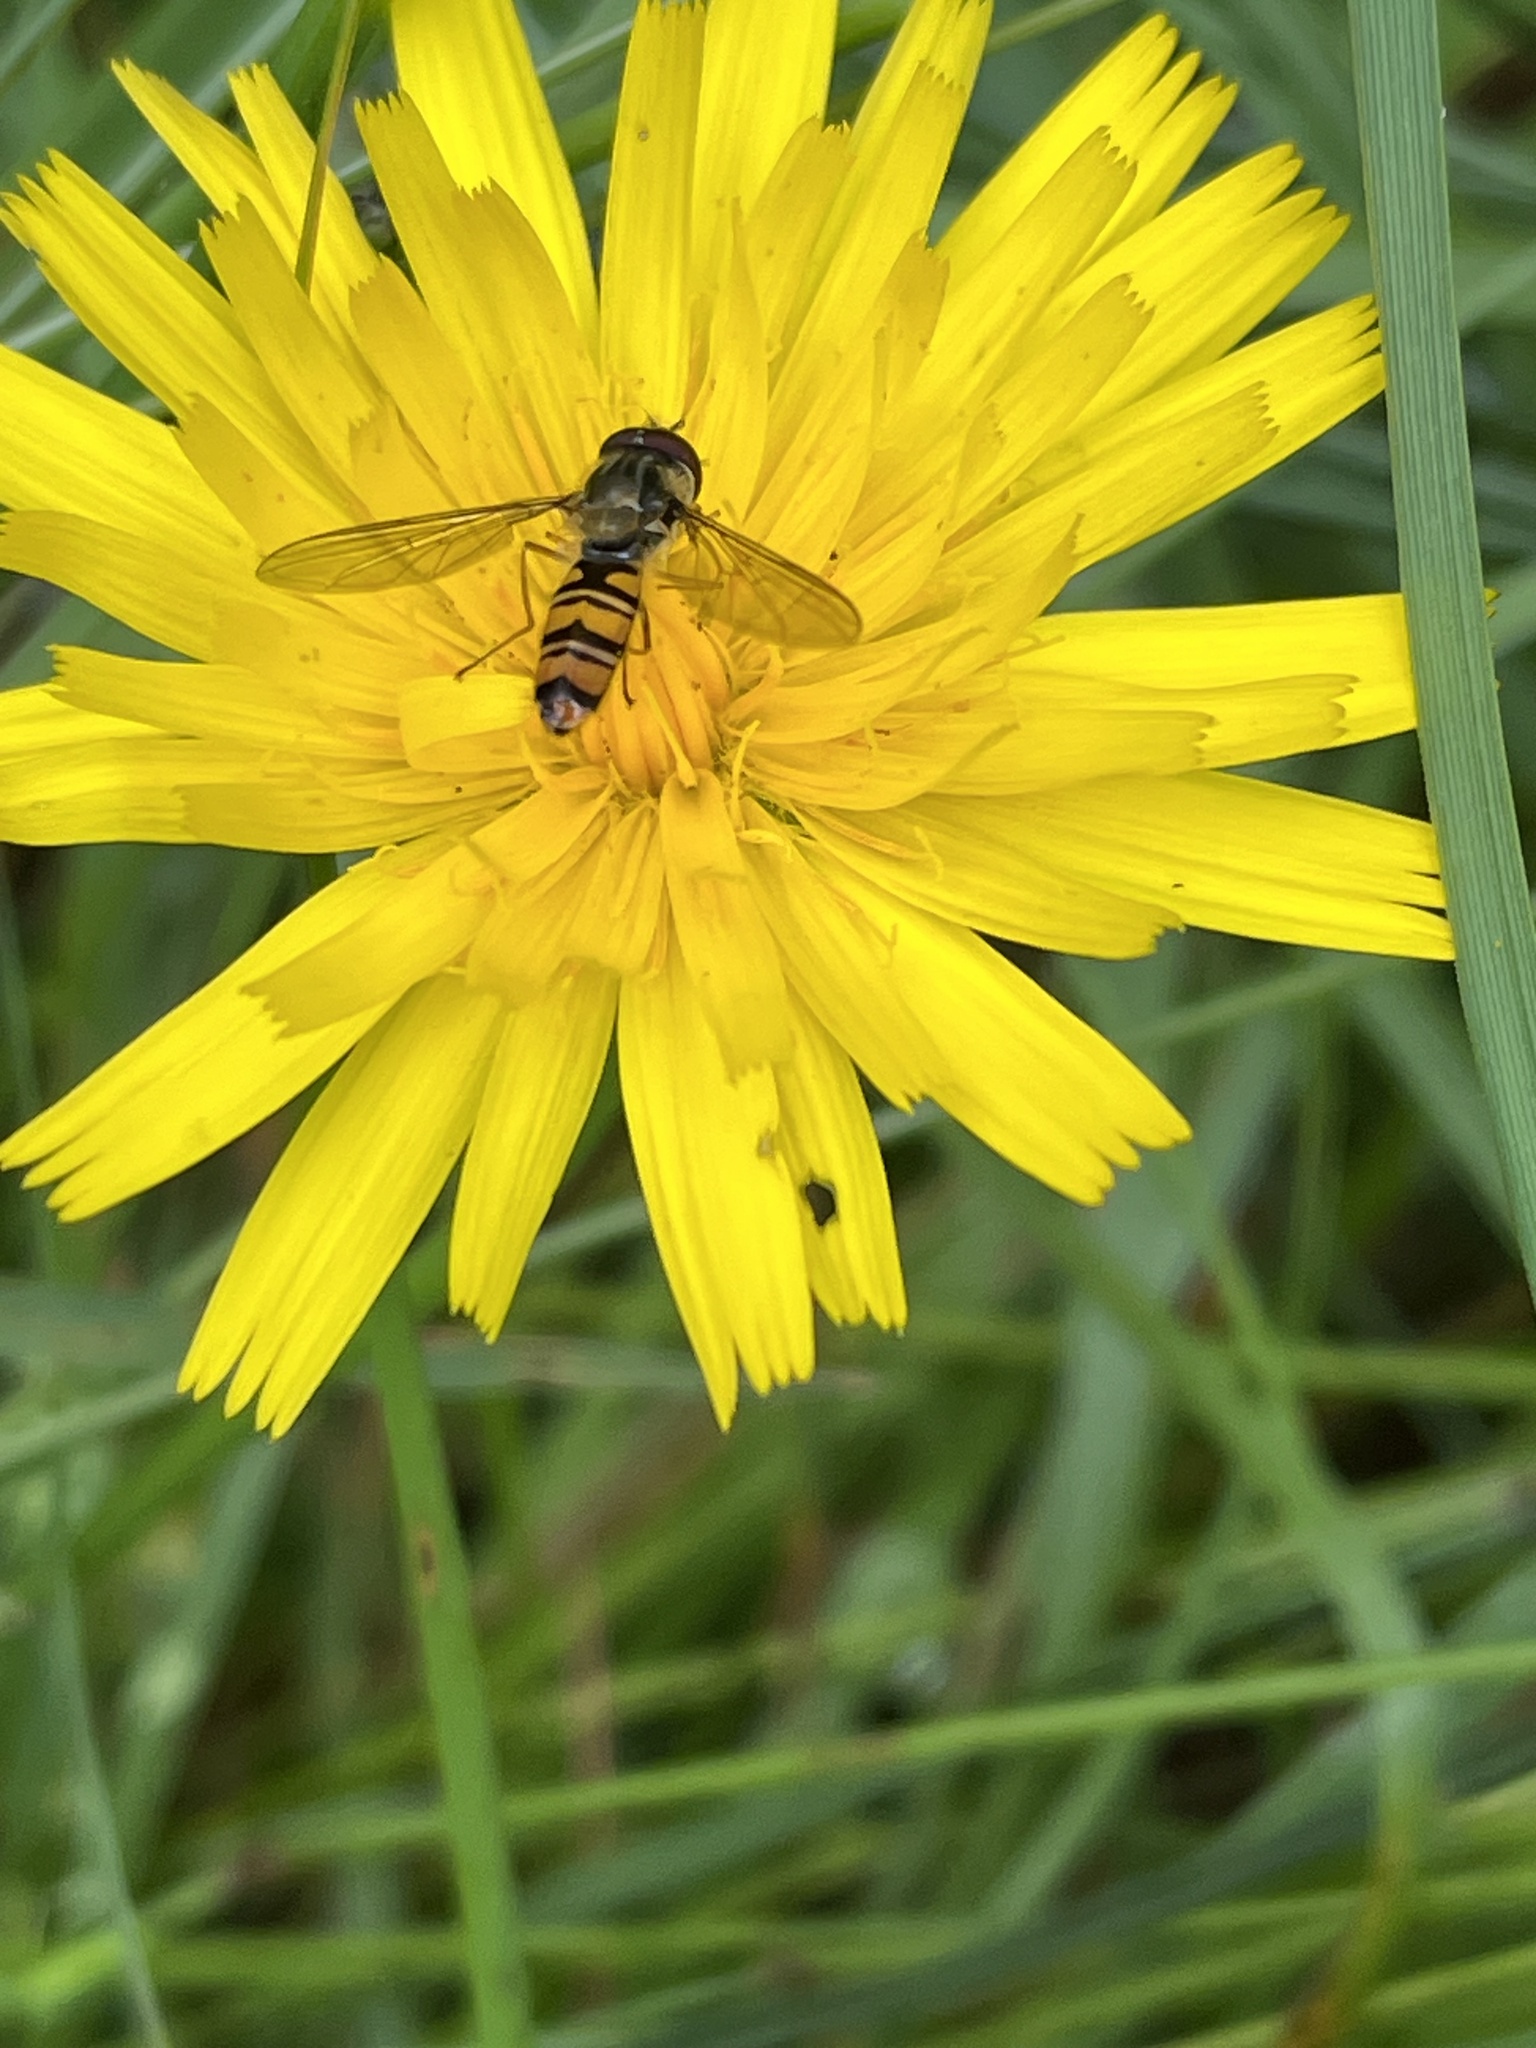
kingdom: Animalia
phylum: Arthropoda
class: Insecta
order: Diptera
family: Syrphidae
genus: Episyrphus
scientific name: Episyrphus balteatus
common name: Marmalade hoverfly
